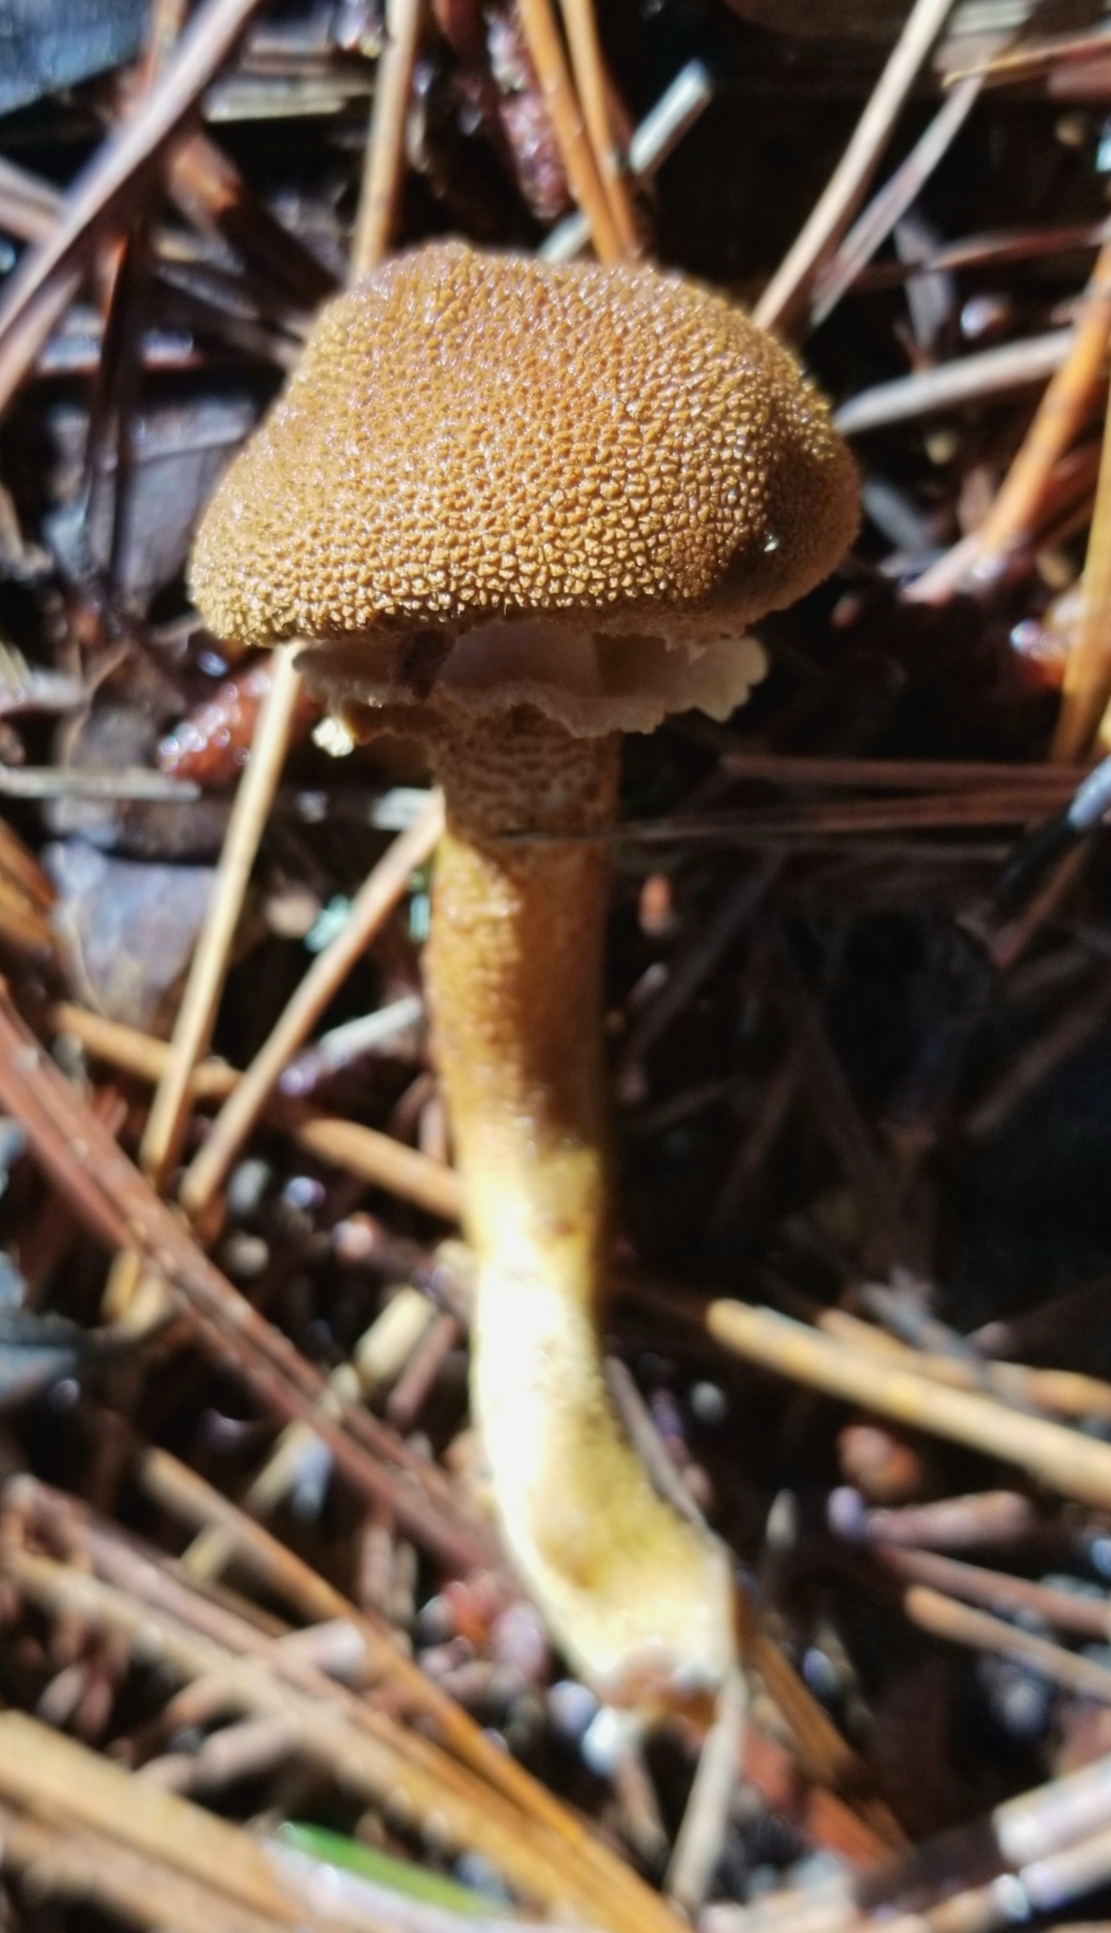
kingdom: Fungi
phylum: Basidiomycota
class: Agaricomycetes
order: Agaricales
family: Tricholomataceae
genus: Cystoderma
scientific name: Cystoderma fallax
